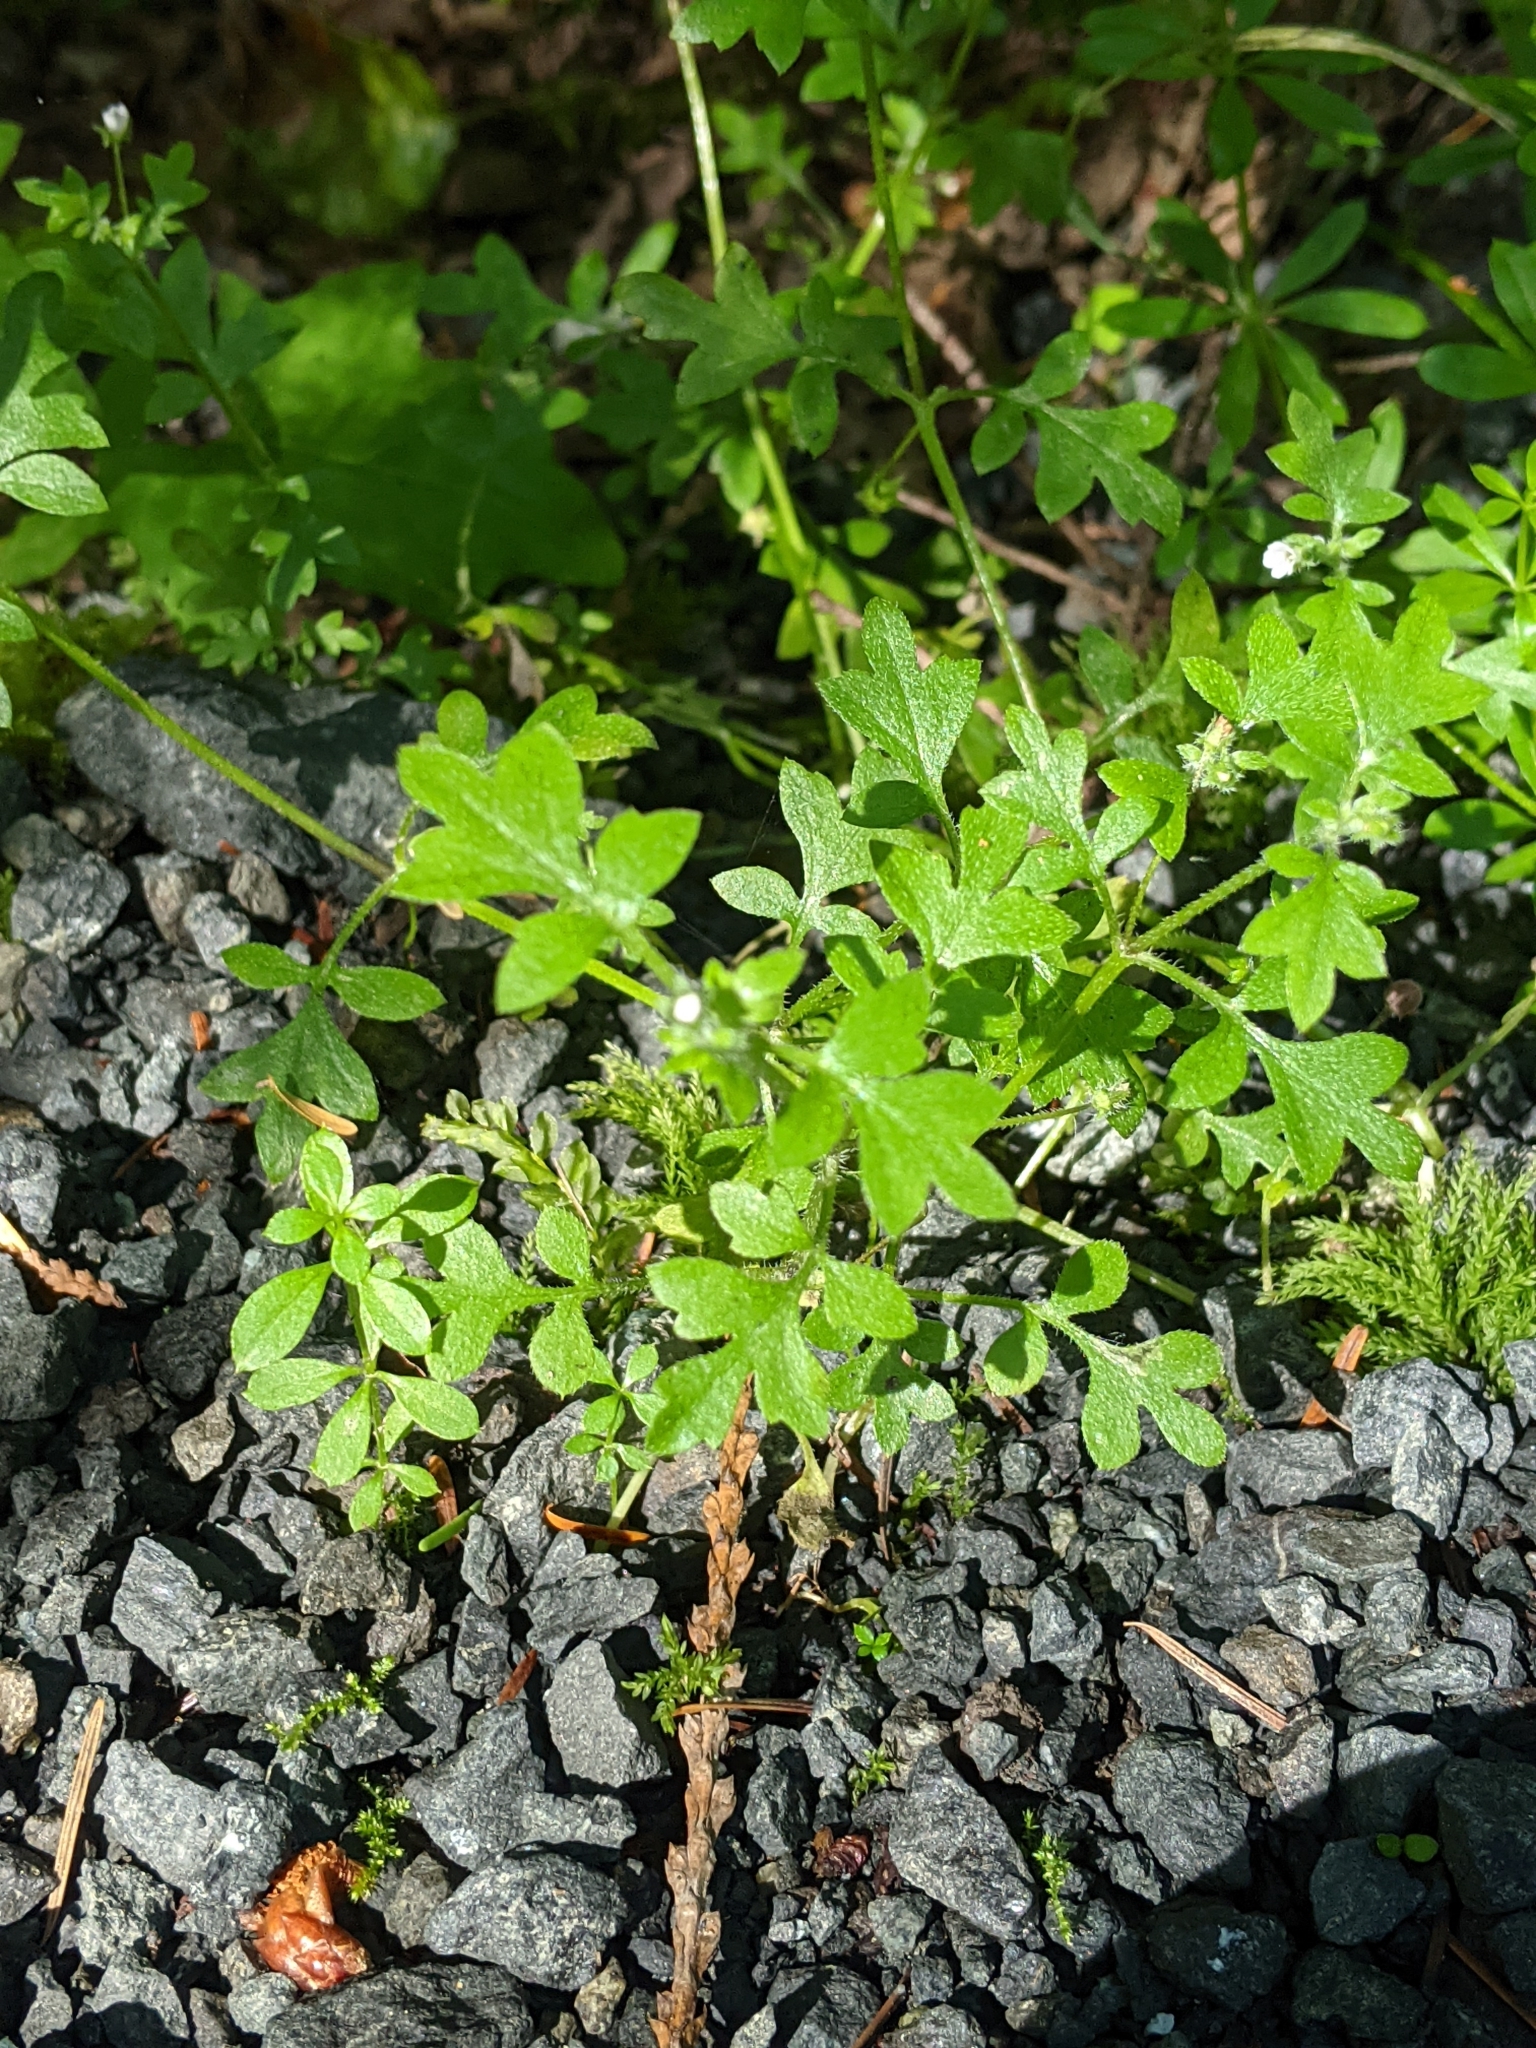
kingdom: Plantae
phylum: Tracheophyta
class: Magnoliopsida
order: Boraginales
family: Hydrophyllaceae
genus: Nemophila
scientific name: Nemophila parviflora
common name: Small-flowered baby-blue-eyes
